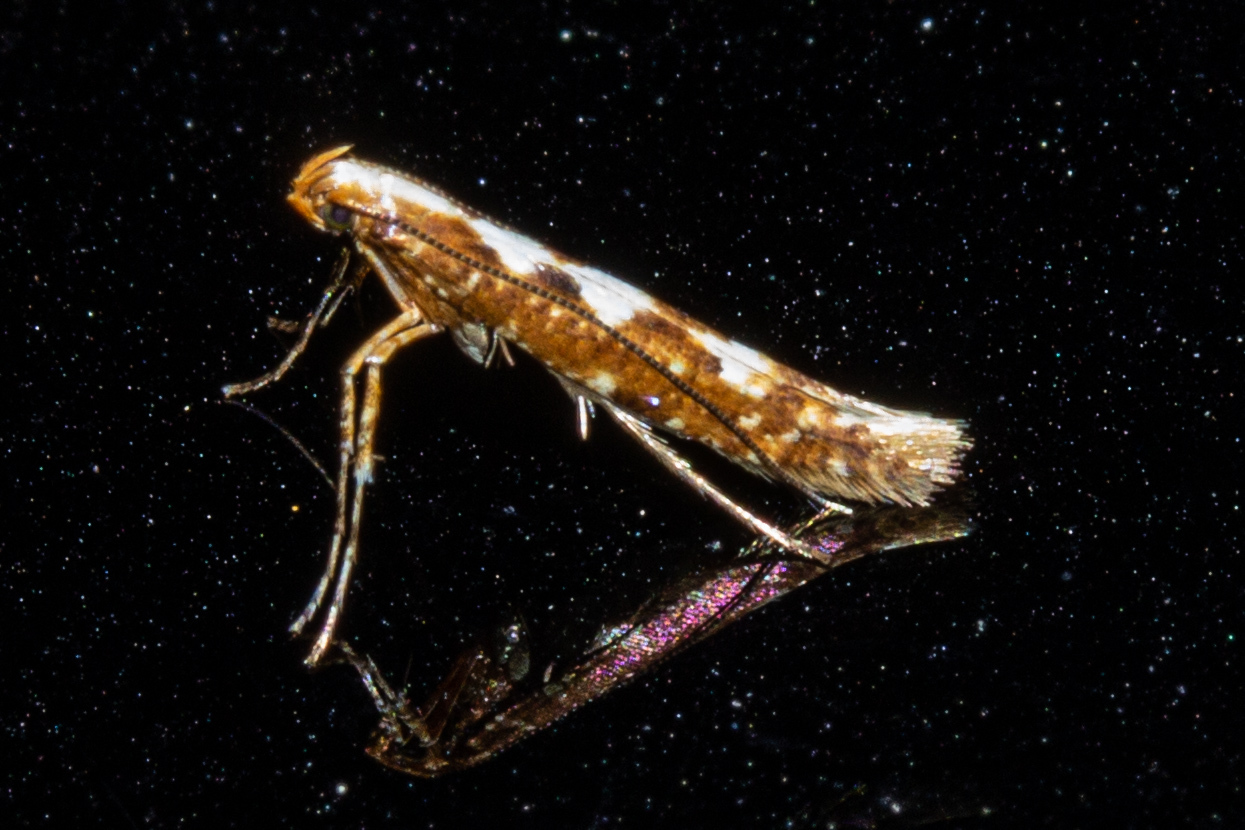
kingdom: Animalia
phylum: Arthropoda
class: Insecta
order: Lepidoptera
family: Gracillariidae
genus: Caloptilia
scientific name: Caloptilia selenitis
